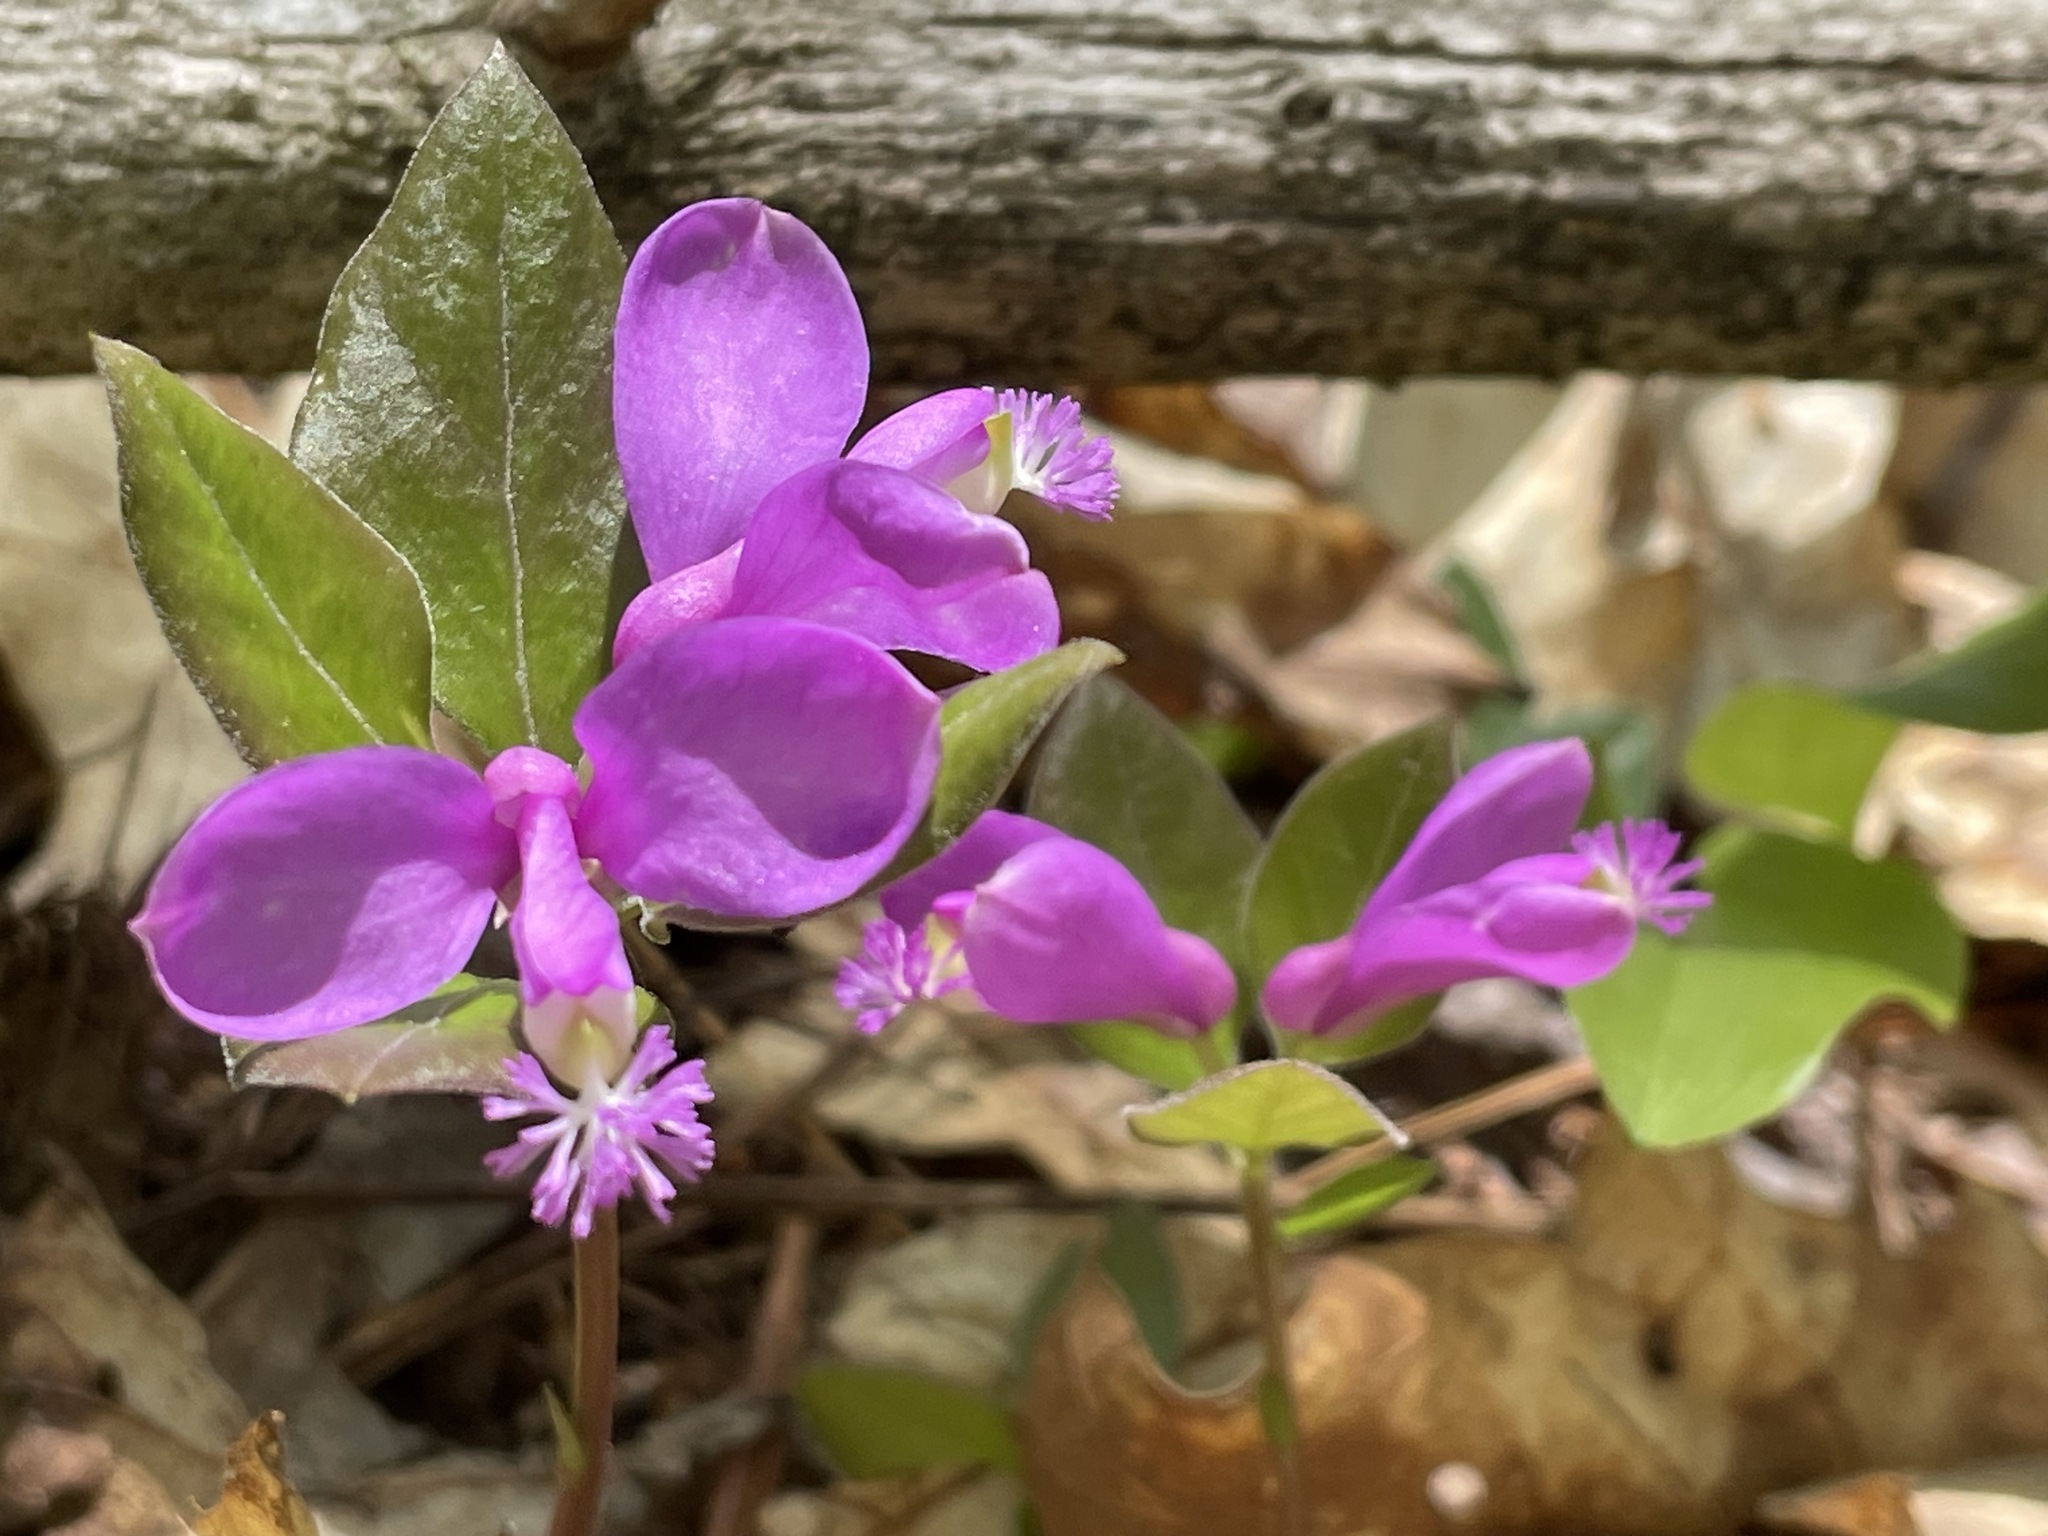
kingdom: Plantae
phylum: Tracheophyta
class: Magnoliopsida
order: Fabales
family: Polygalaceae
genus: Polygaloides
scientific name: Polygaloides paucifolia
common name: Bird-on-the-wing
